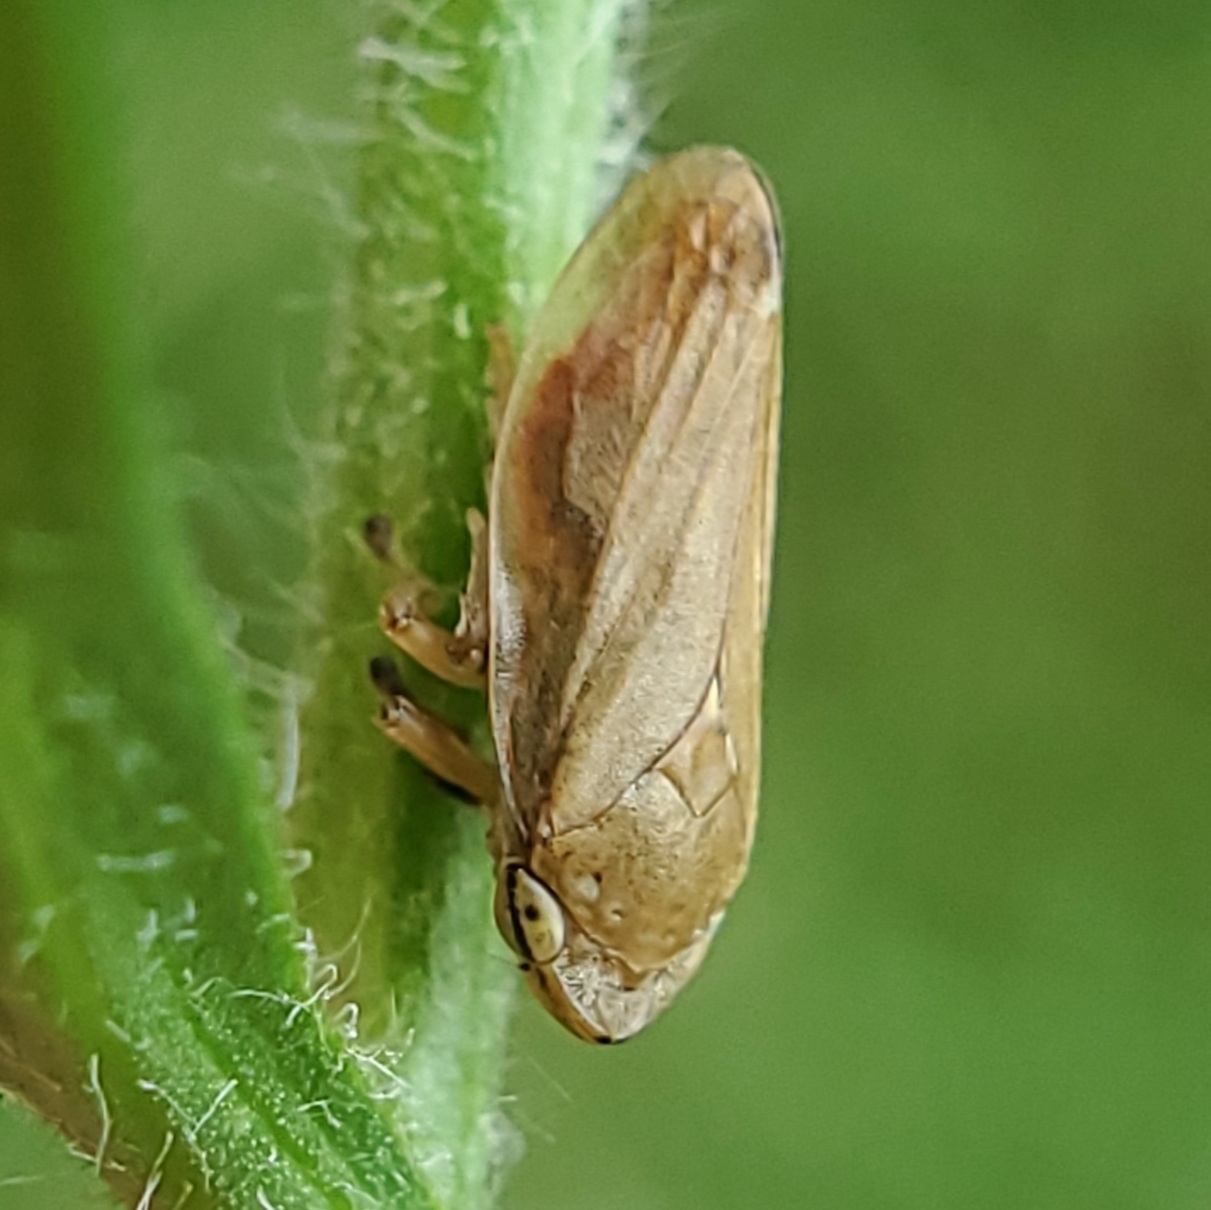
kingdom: Animalia
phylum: Arthropoda
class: Insecta
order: Hemiptera
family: Aphrophoridae
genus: Philaenus
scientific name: Philaenus spumarius
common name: Meadow spittlebug
